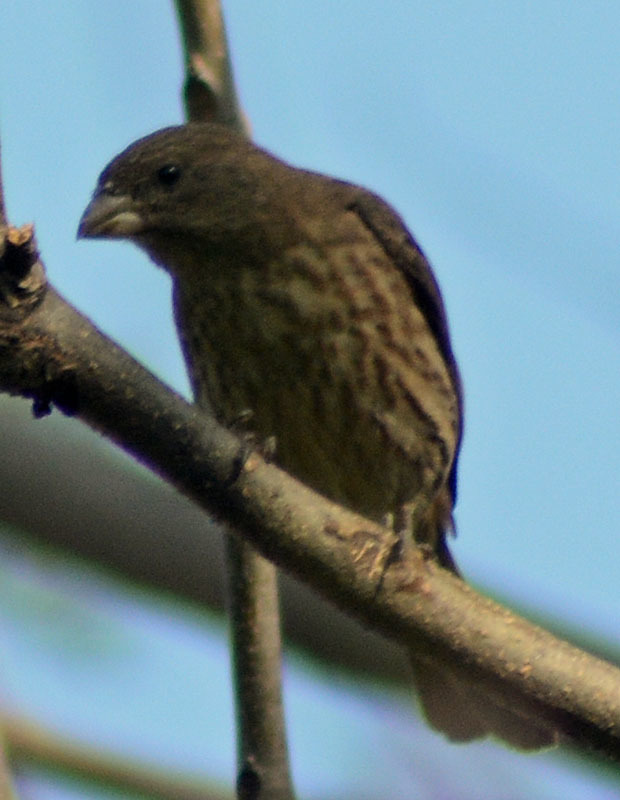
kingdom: Animalia
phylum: Chordata
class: Aves
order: Passeriformes
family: Fringillidae
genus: Haemorhous
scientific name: Haemorhous mexicanus
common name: House finch
